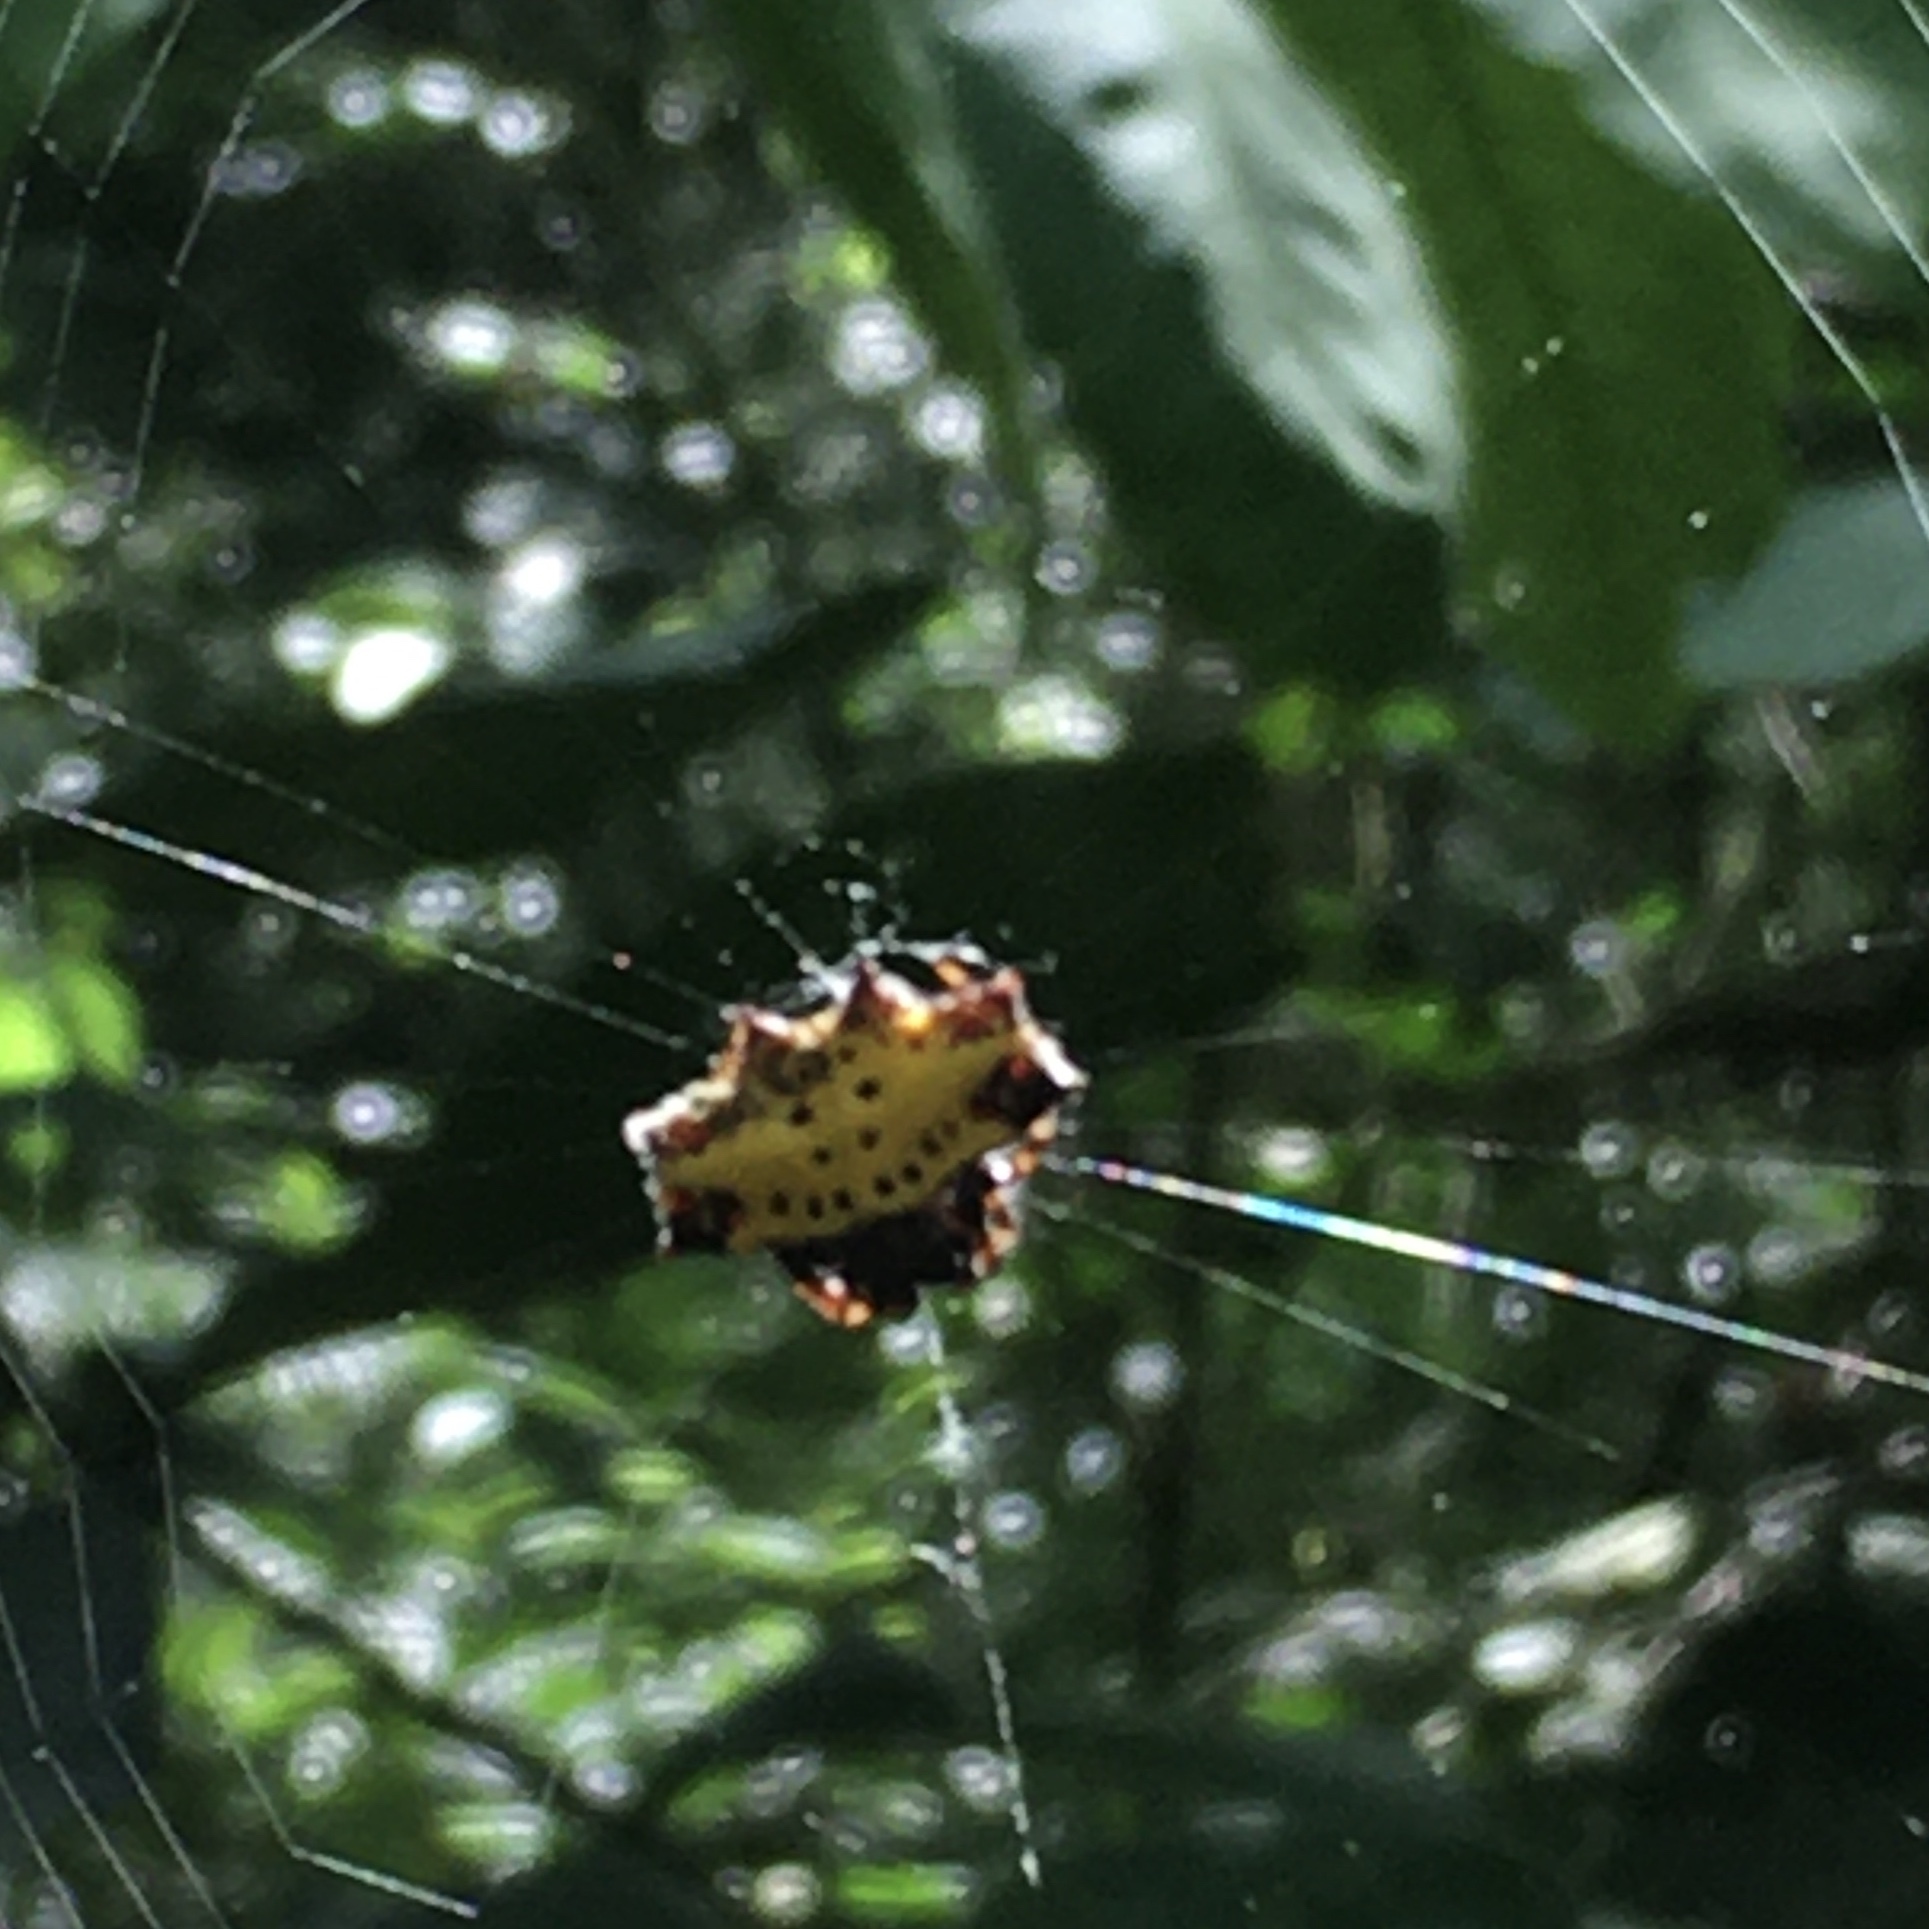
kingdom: Animalia
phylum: Arthropoda
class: Arachnida
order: Araneae
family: Araneidae
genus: Gasteracantha
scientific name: Gasteracantha cancriformis
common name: Orb weavers
